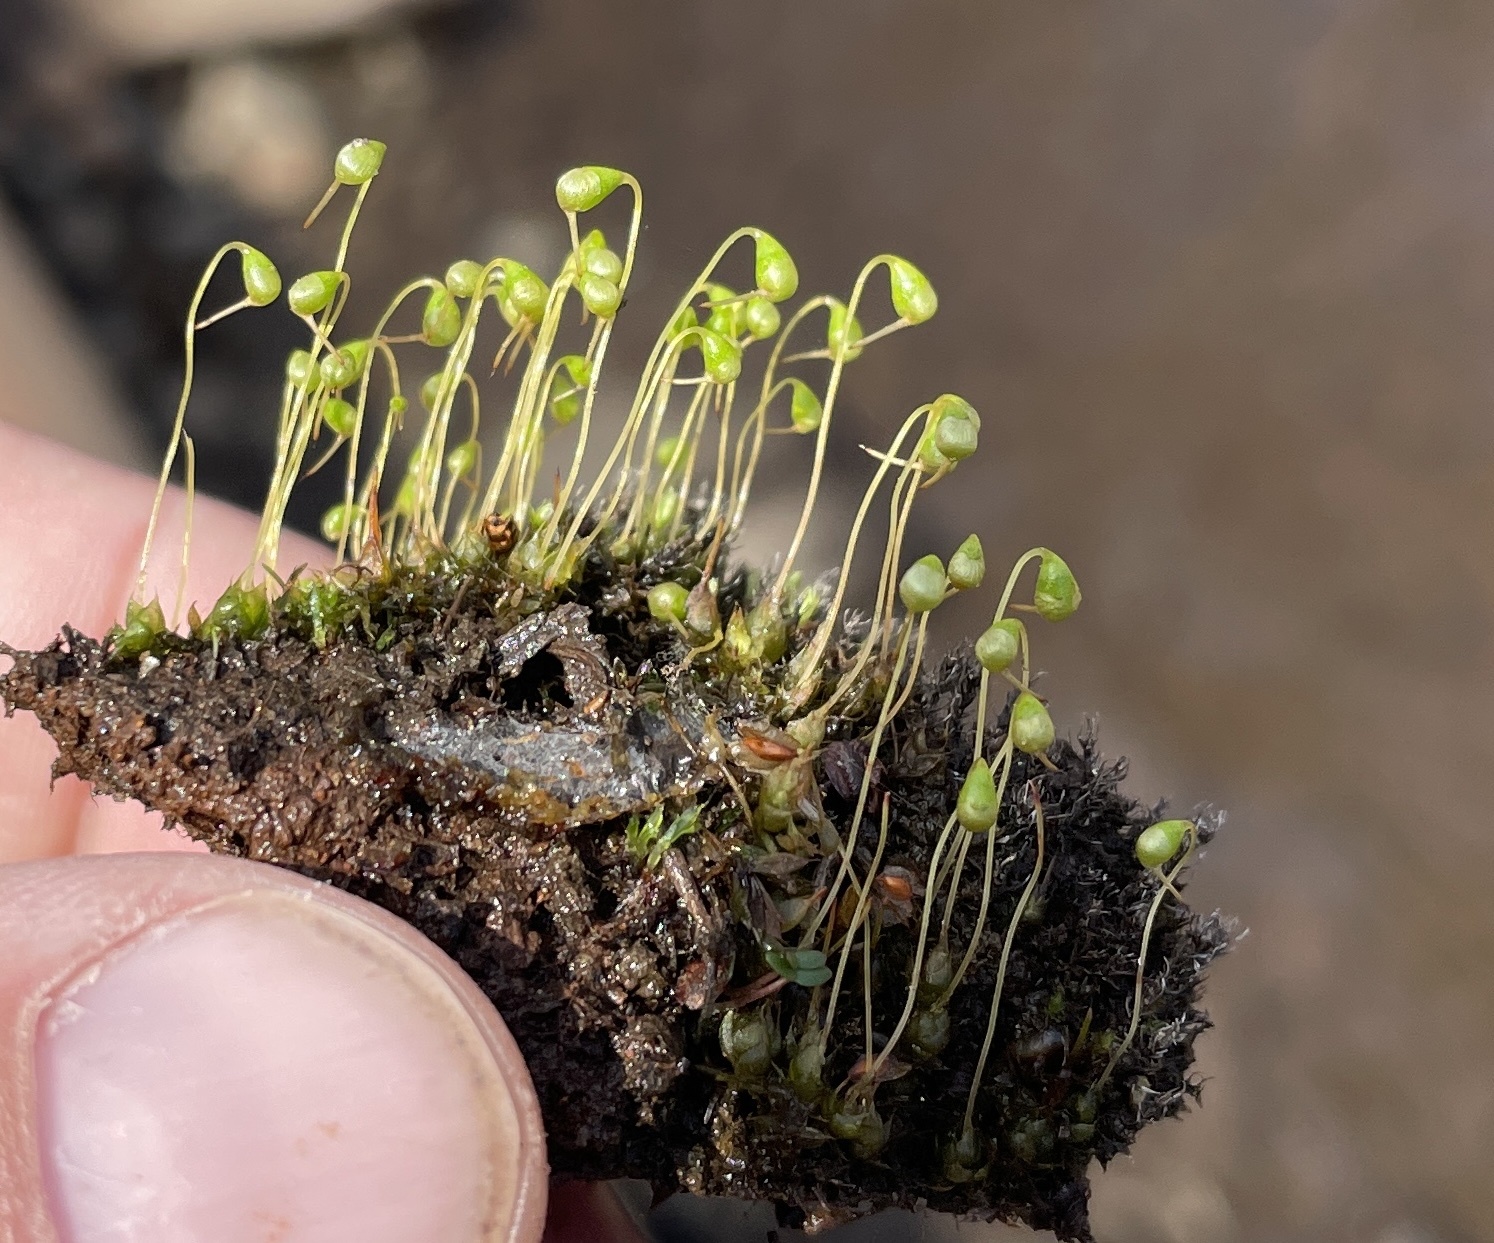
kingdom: Plantae
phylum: Bryophyta
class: Bryopsida
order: Funariales
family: Funariaceae
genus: Funaria
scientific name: Funaria hygrometrica
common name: Common cord moss
